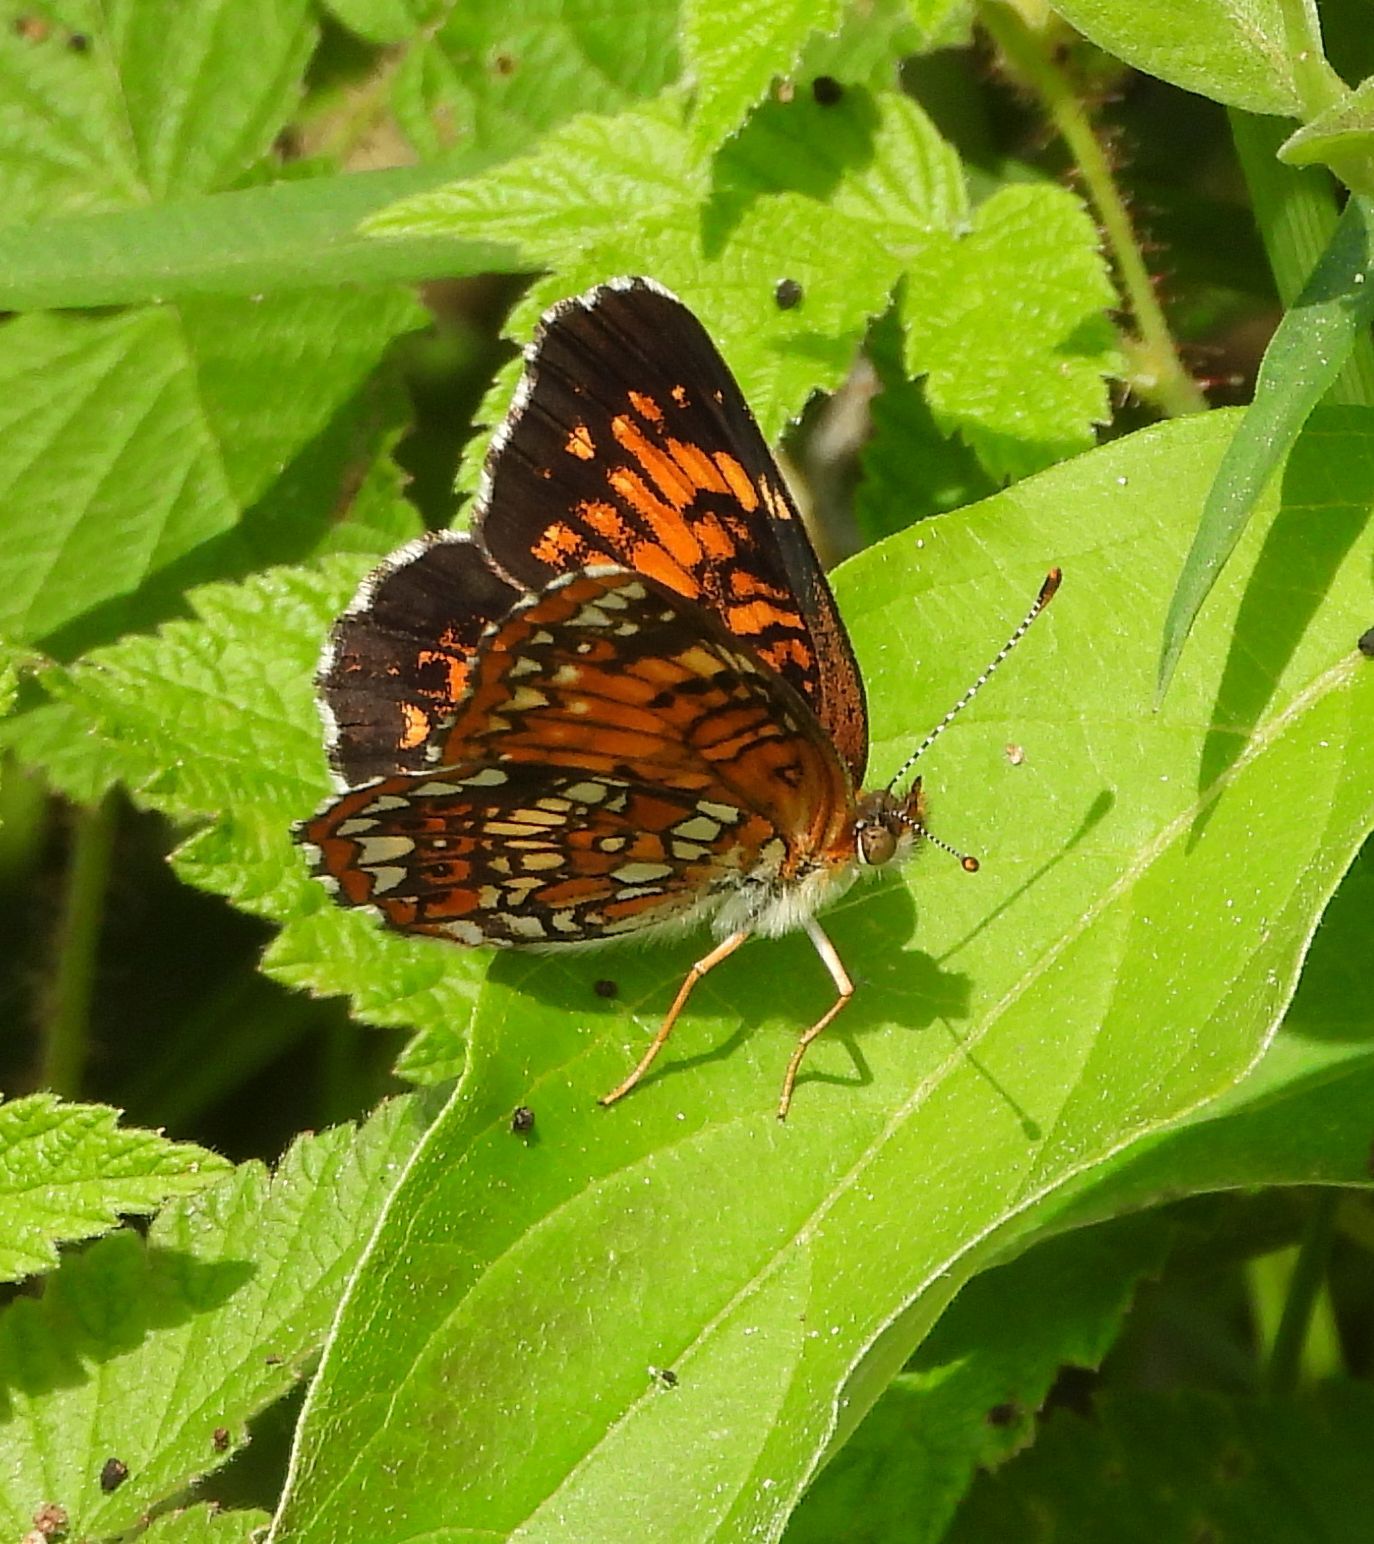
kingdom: Animalia
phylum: Arthropoda
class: Insecta
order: Lepidoptera
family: Nymphalidae
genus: Chlosyne
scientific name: Chlosyne harrisii
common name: Harris's checkerspot
